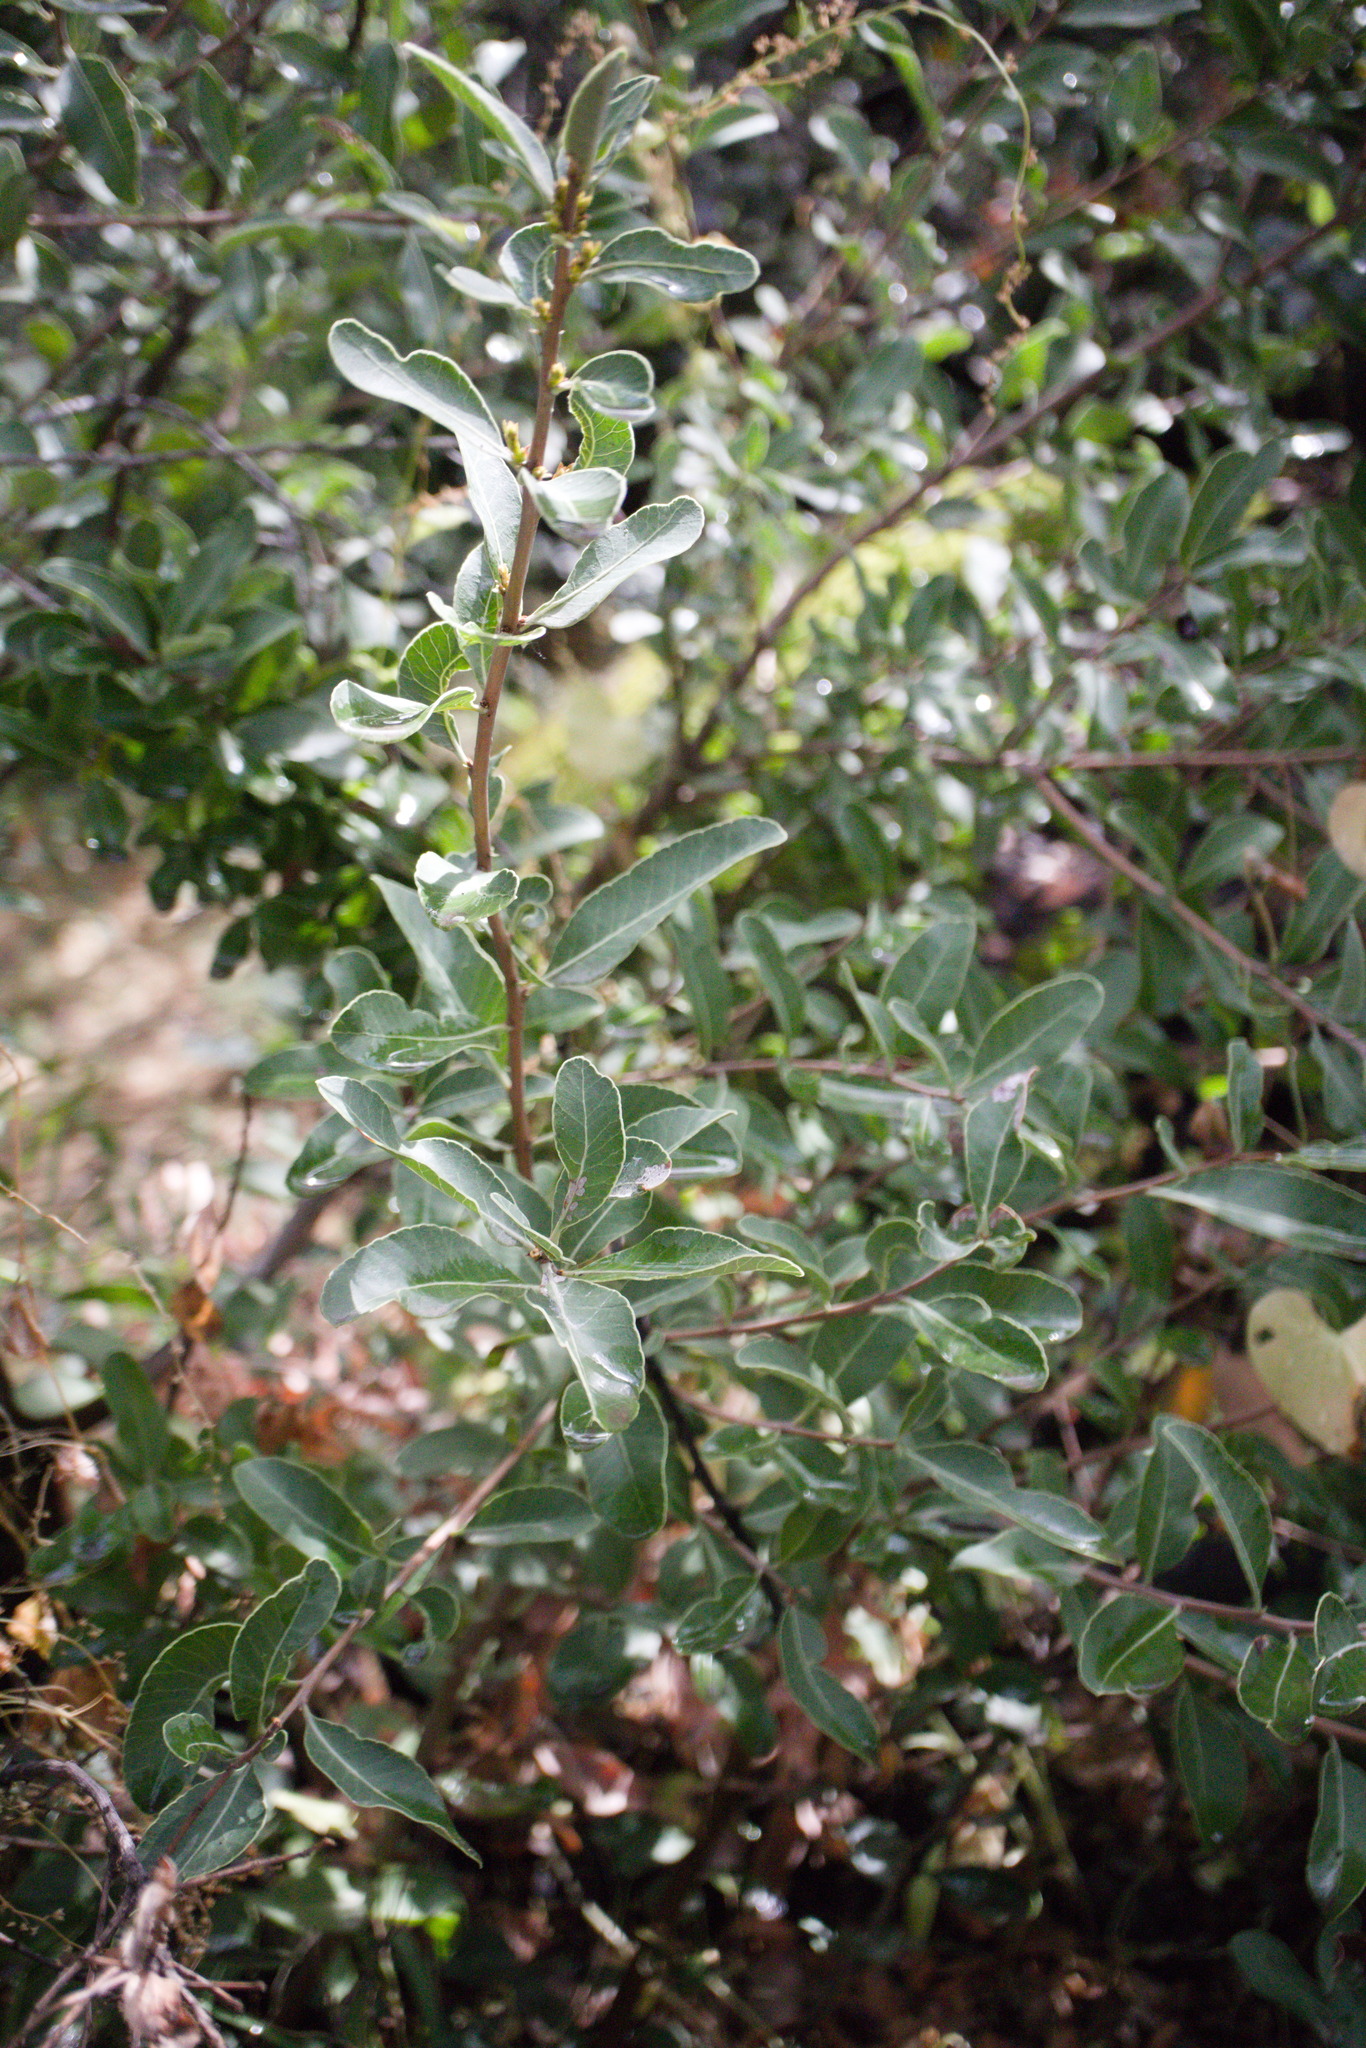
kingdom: Plantae
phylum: Tracheophyta
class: Magnoliopsida
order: Sapindales
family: Anacardiaceae
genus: Lithraea
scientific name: Lithraea caustica
